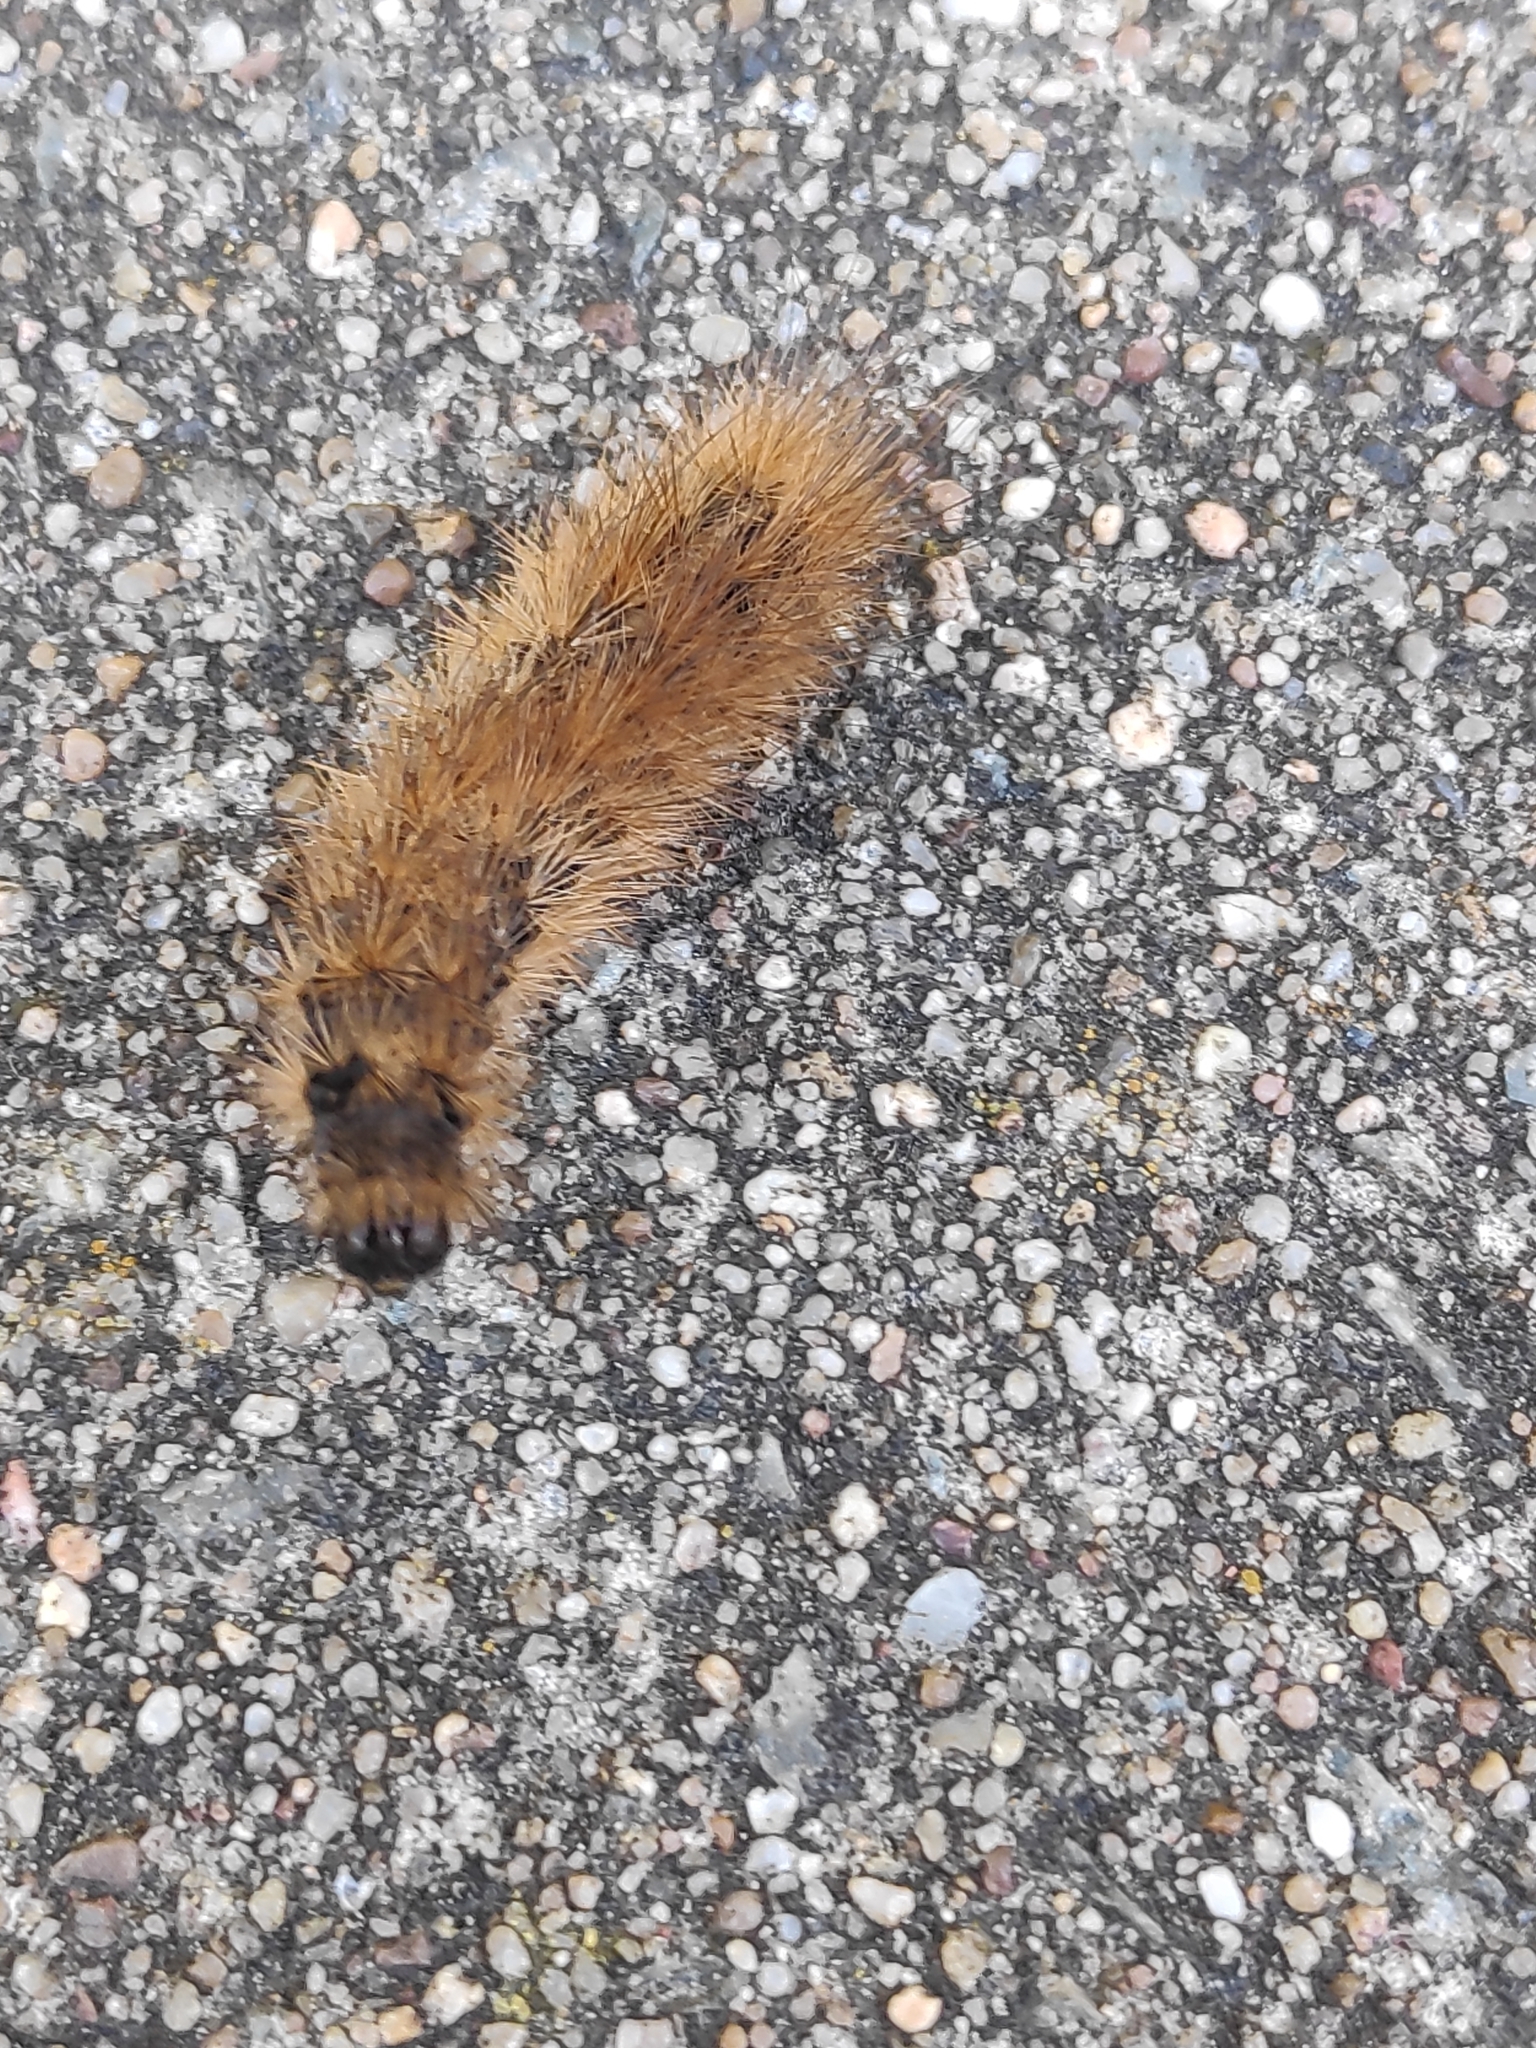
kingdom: Animalia
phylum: Arthropoda
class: Insecta
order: Lepidoptera
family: Erebidae
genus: Phragmatobia
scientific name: Phragmatobia fuliginosa
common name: Ruby tiger
